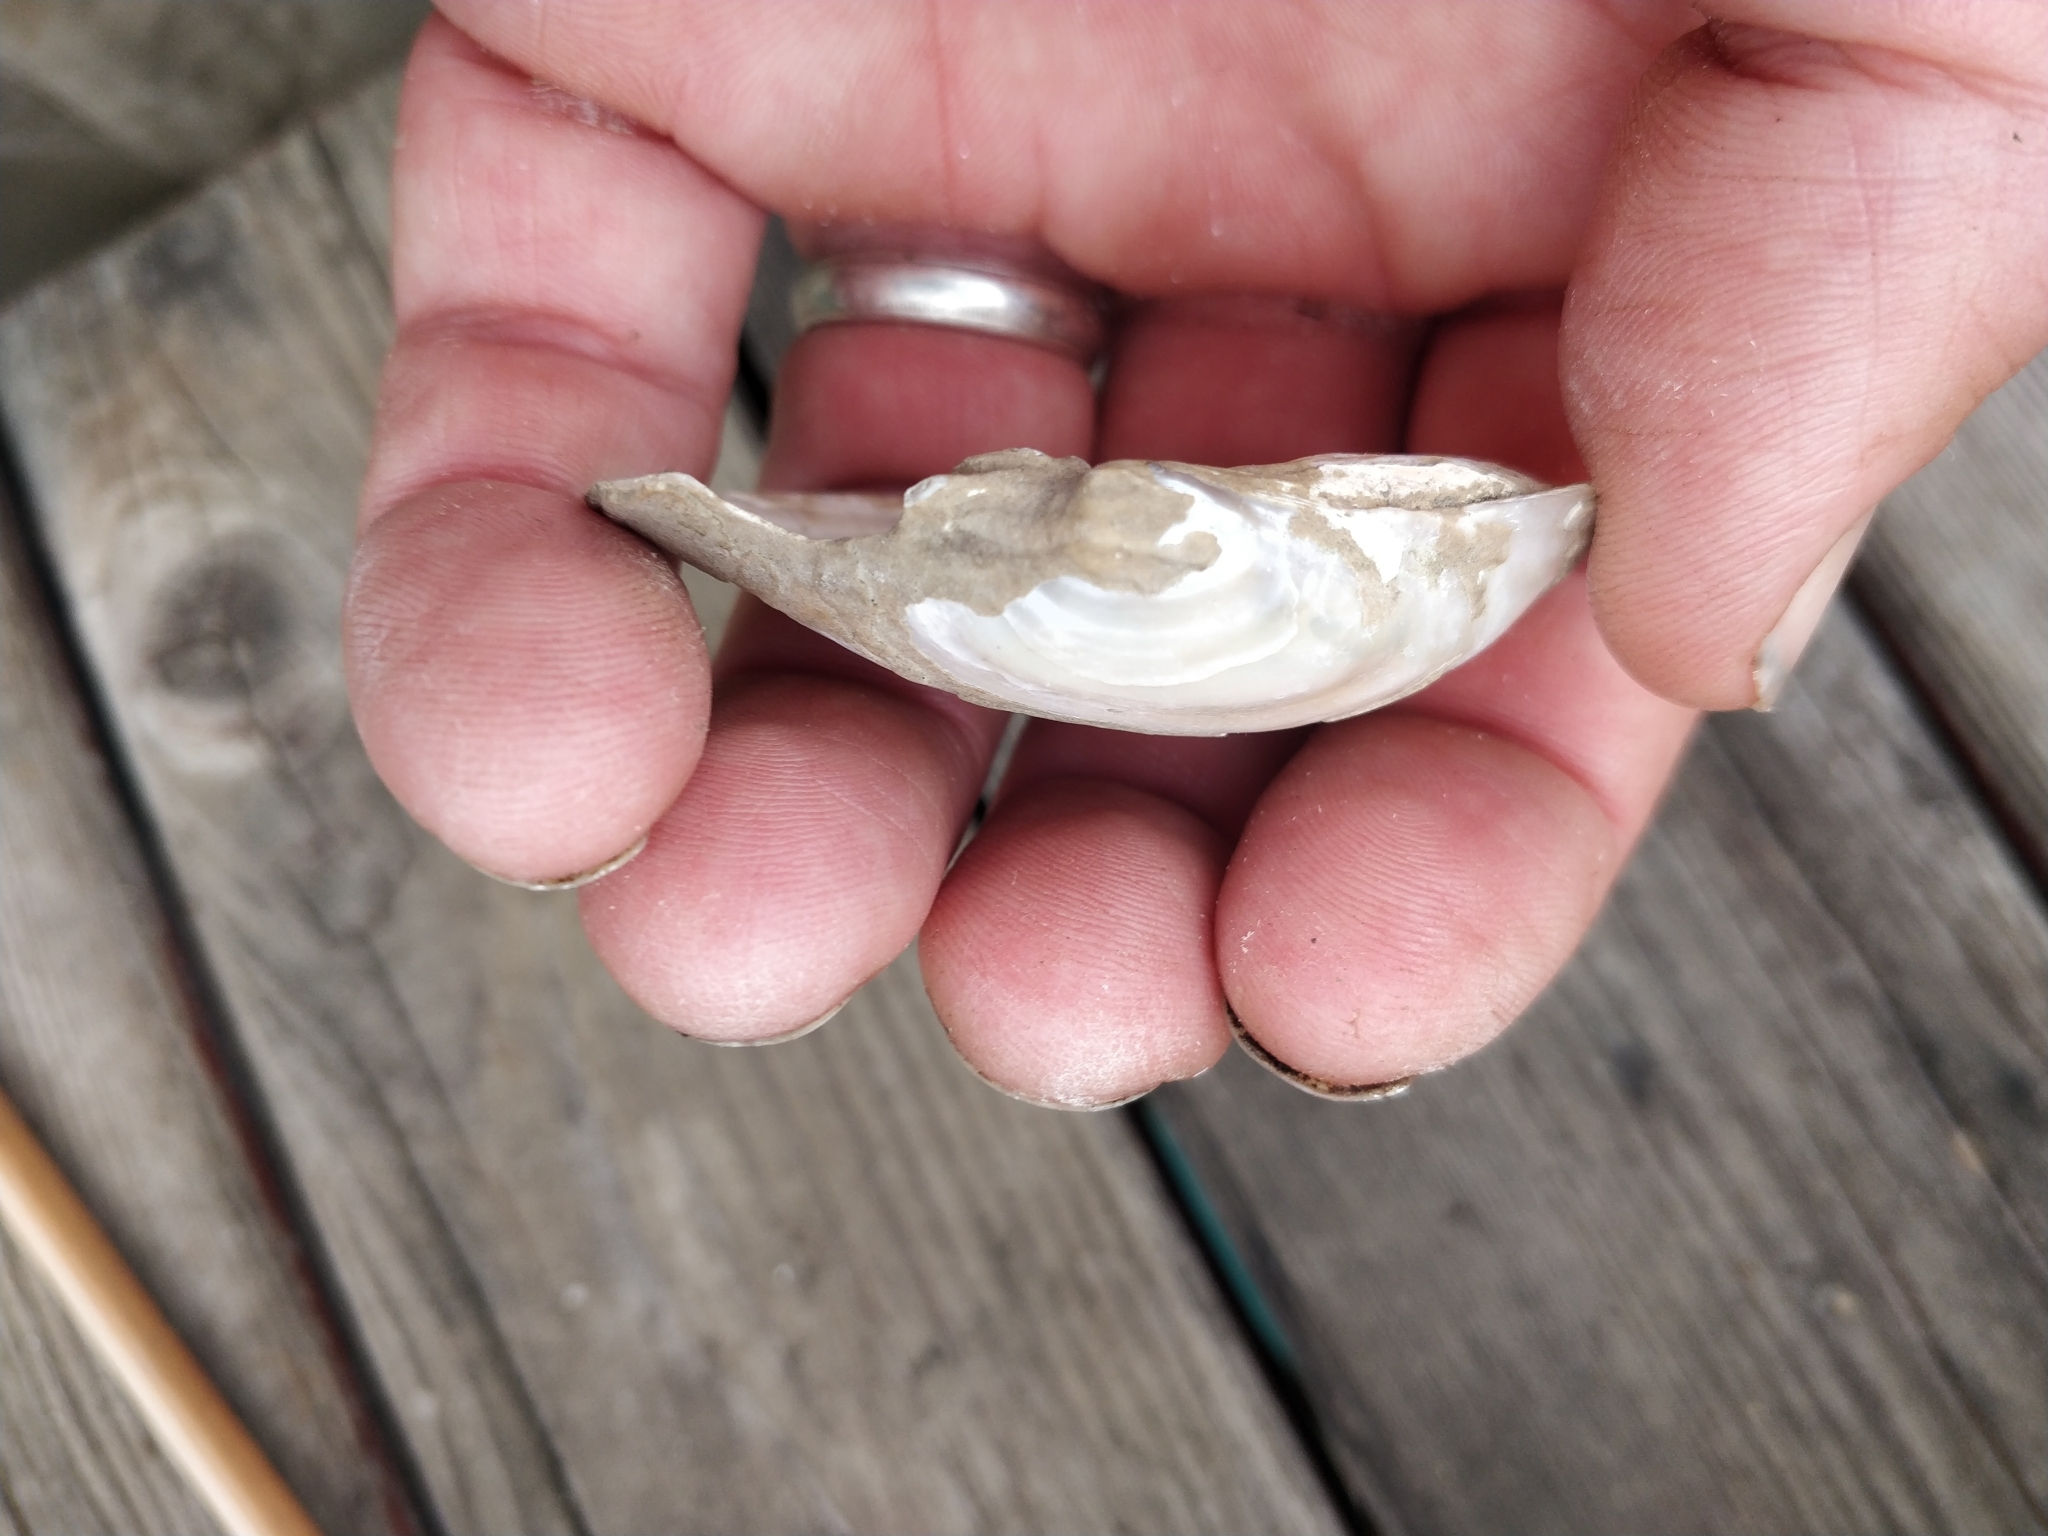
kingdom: Animalia
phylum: Mollusca
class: Bivalvia
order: Unionida
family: Unionidae
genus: Lampsilis
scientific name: Lampsilis cardium
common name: Plain pocketbook
